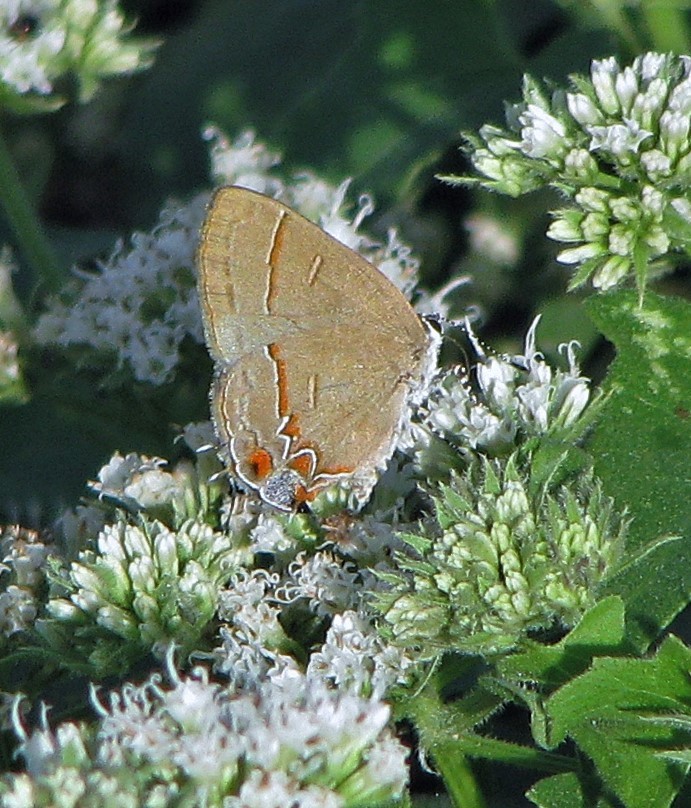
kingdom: Animalia
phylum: Arthropoda
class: Insecta
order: Lepidoptera
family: Lycaenidae
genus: Calycopis
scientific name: Calycopis caulonia
